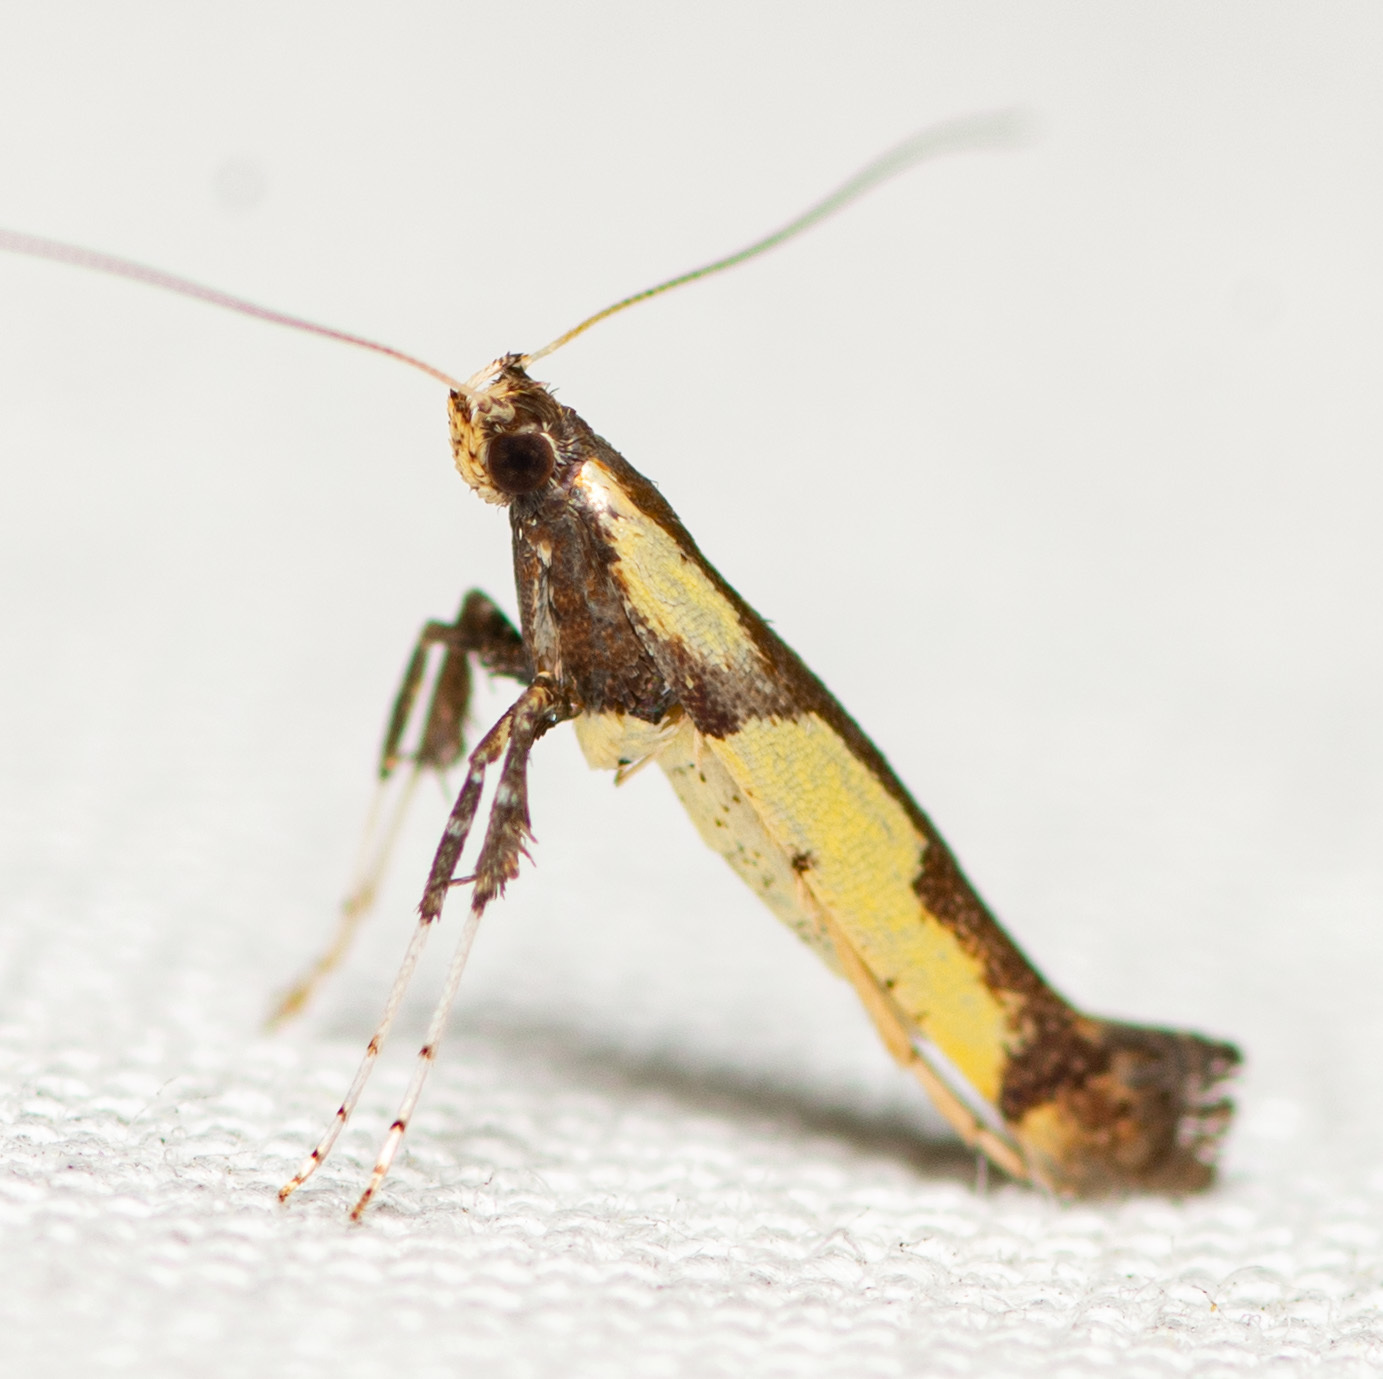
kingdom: Animalia
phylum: Arthropoda
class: Insecta
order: Lepidoptera
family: Gracillariidae
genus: Caloptilia
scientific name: Caloptilia blandella
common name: Walnut caloptilia moth
